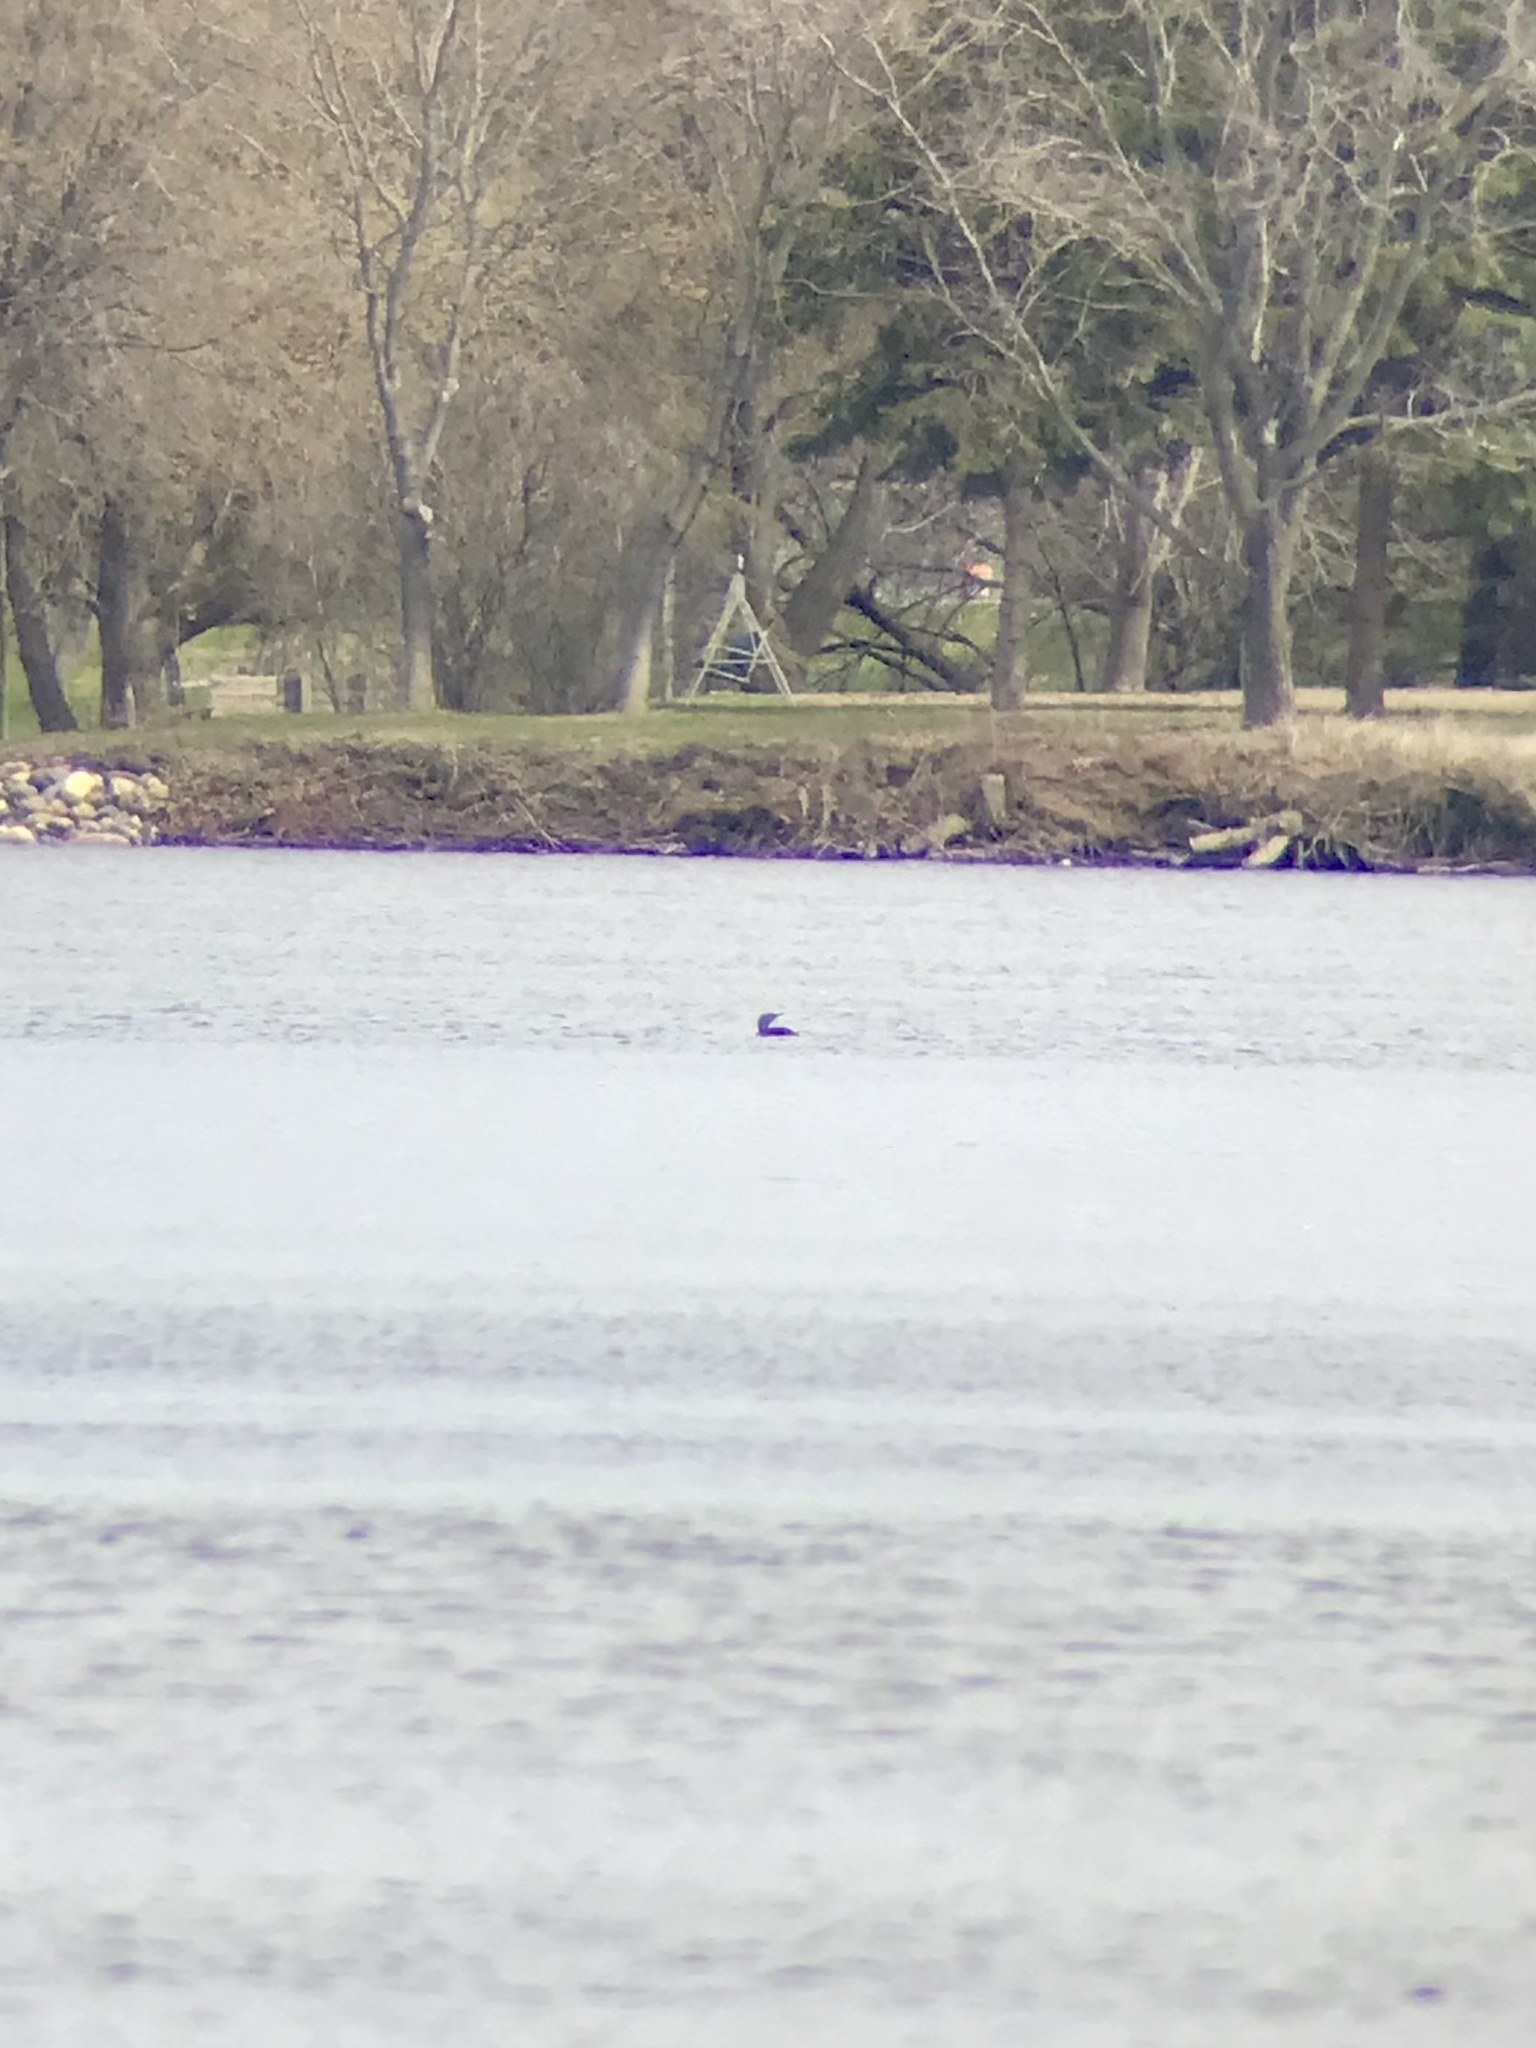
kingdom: Animalia
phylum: Chordata
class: Aves
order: Gaviiformes
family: Gaviidae
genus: Gavia
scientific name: Gavia stellata
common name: Red-throated loon
